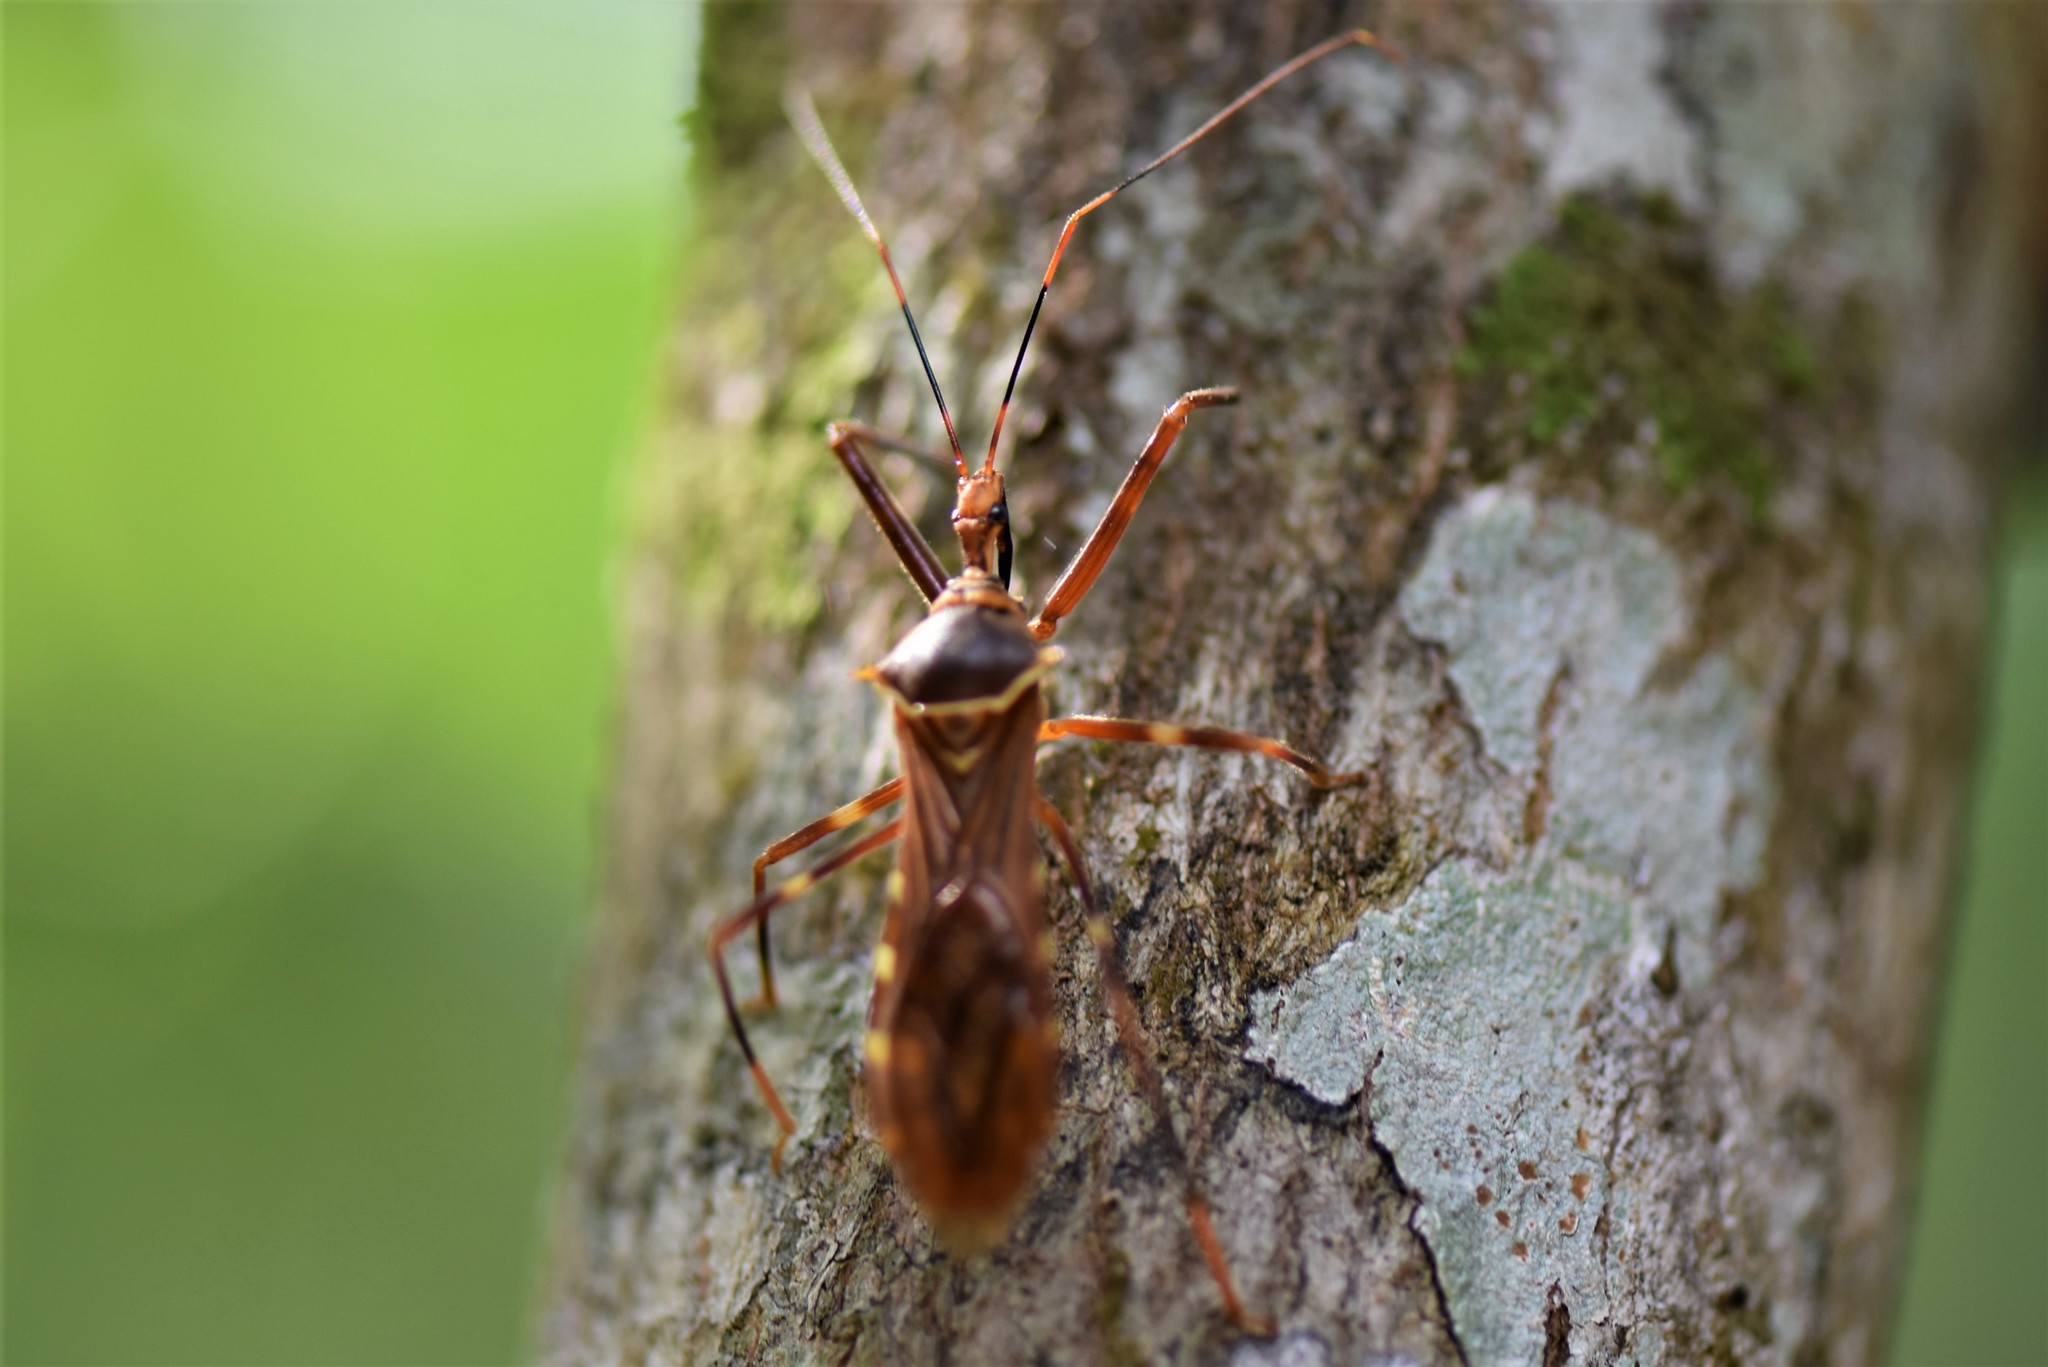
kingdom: Animalia
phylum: Arthropoda
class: Insecta
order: Hemiptera
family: Reduviidae
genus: Isocondylus
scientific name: Isocondylus elongatus
